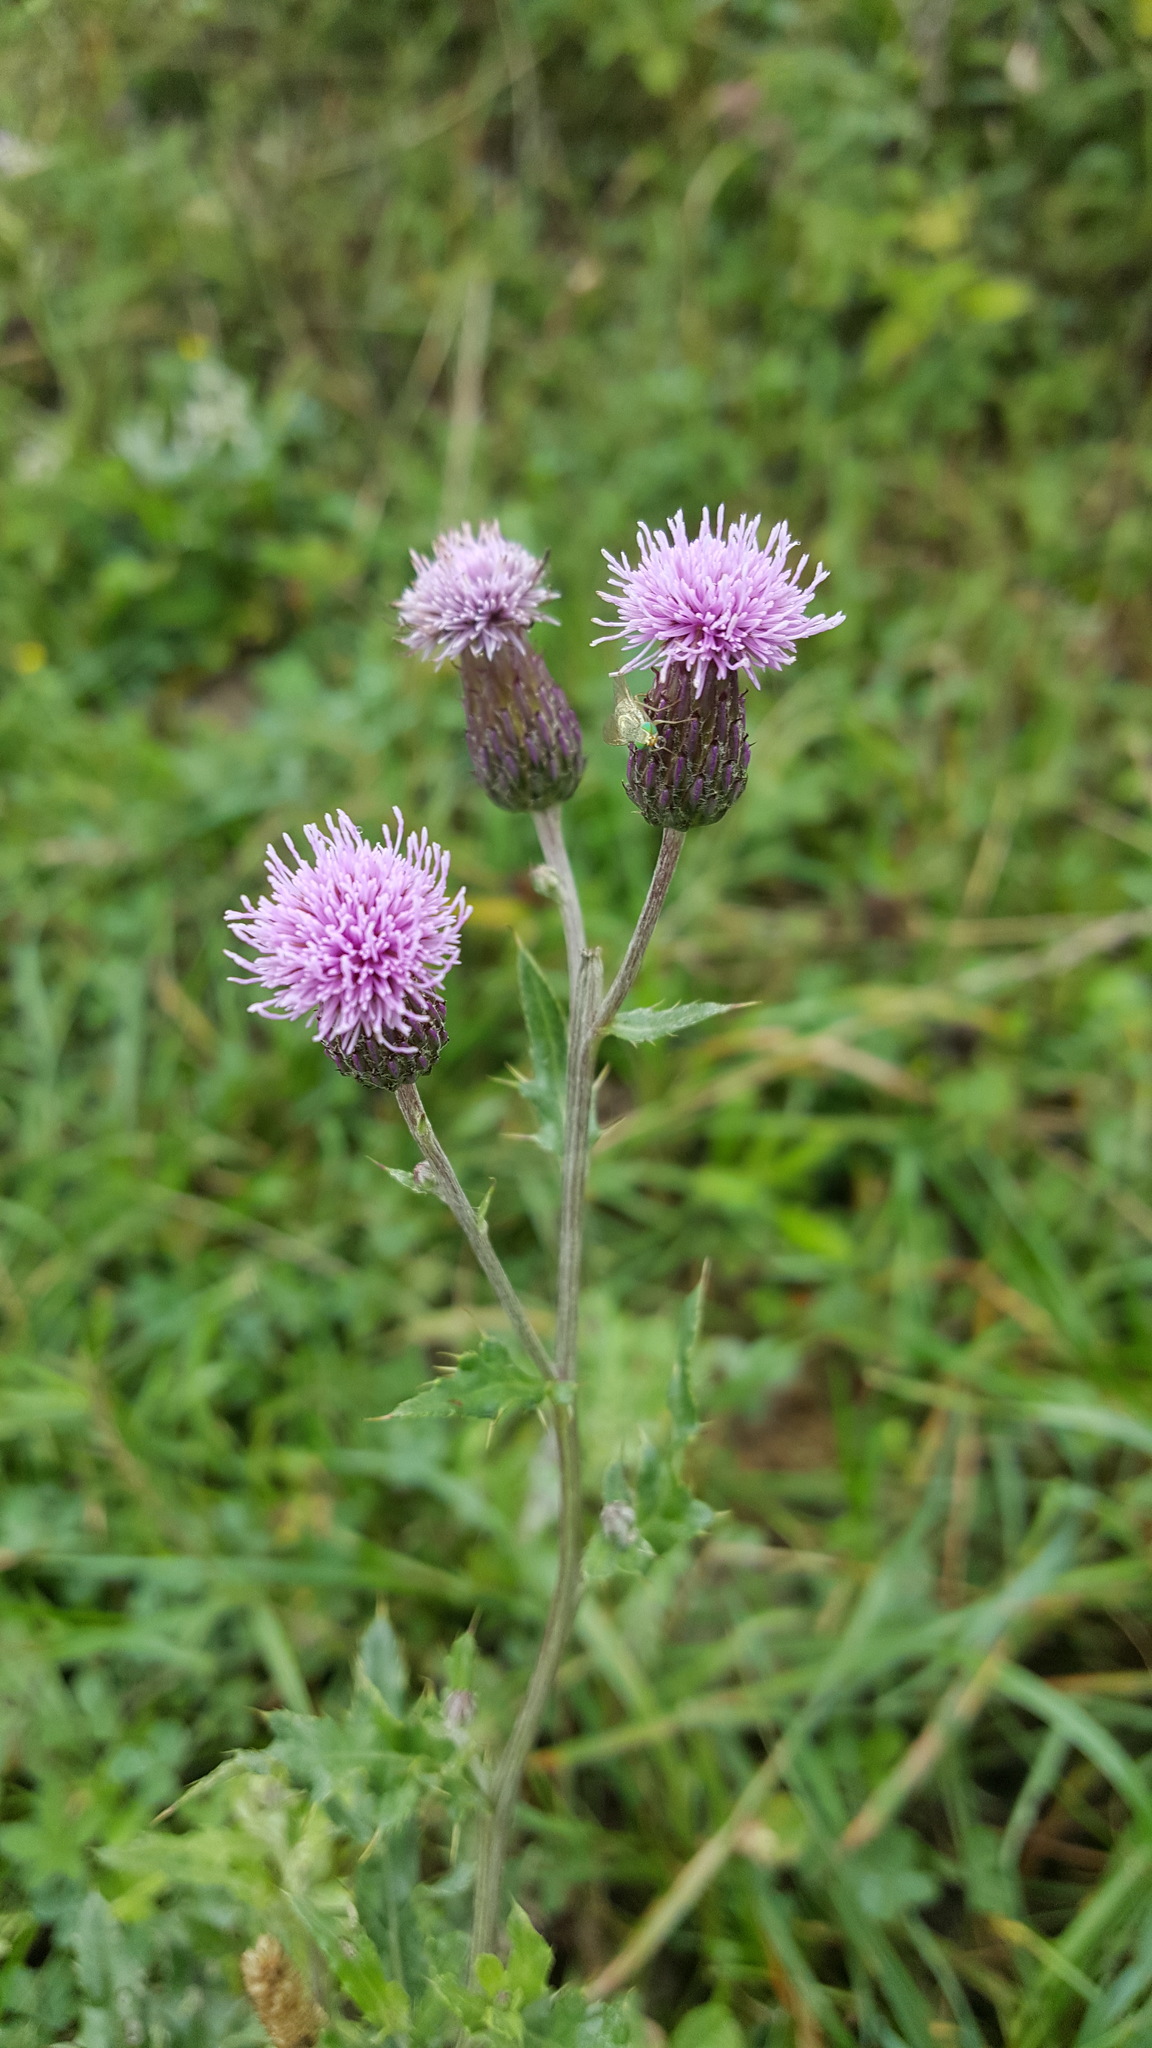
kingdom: Plantae
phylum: Tracheophyta
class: Magnoliopsida
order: Asterales
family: Asteraceae
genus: Cirsium
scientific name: Cirsium arvense
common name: Creeping thistle
